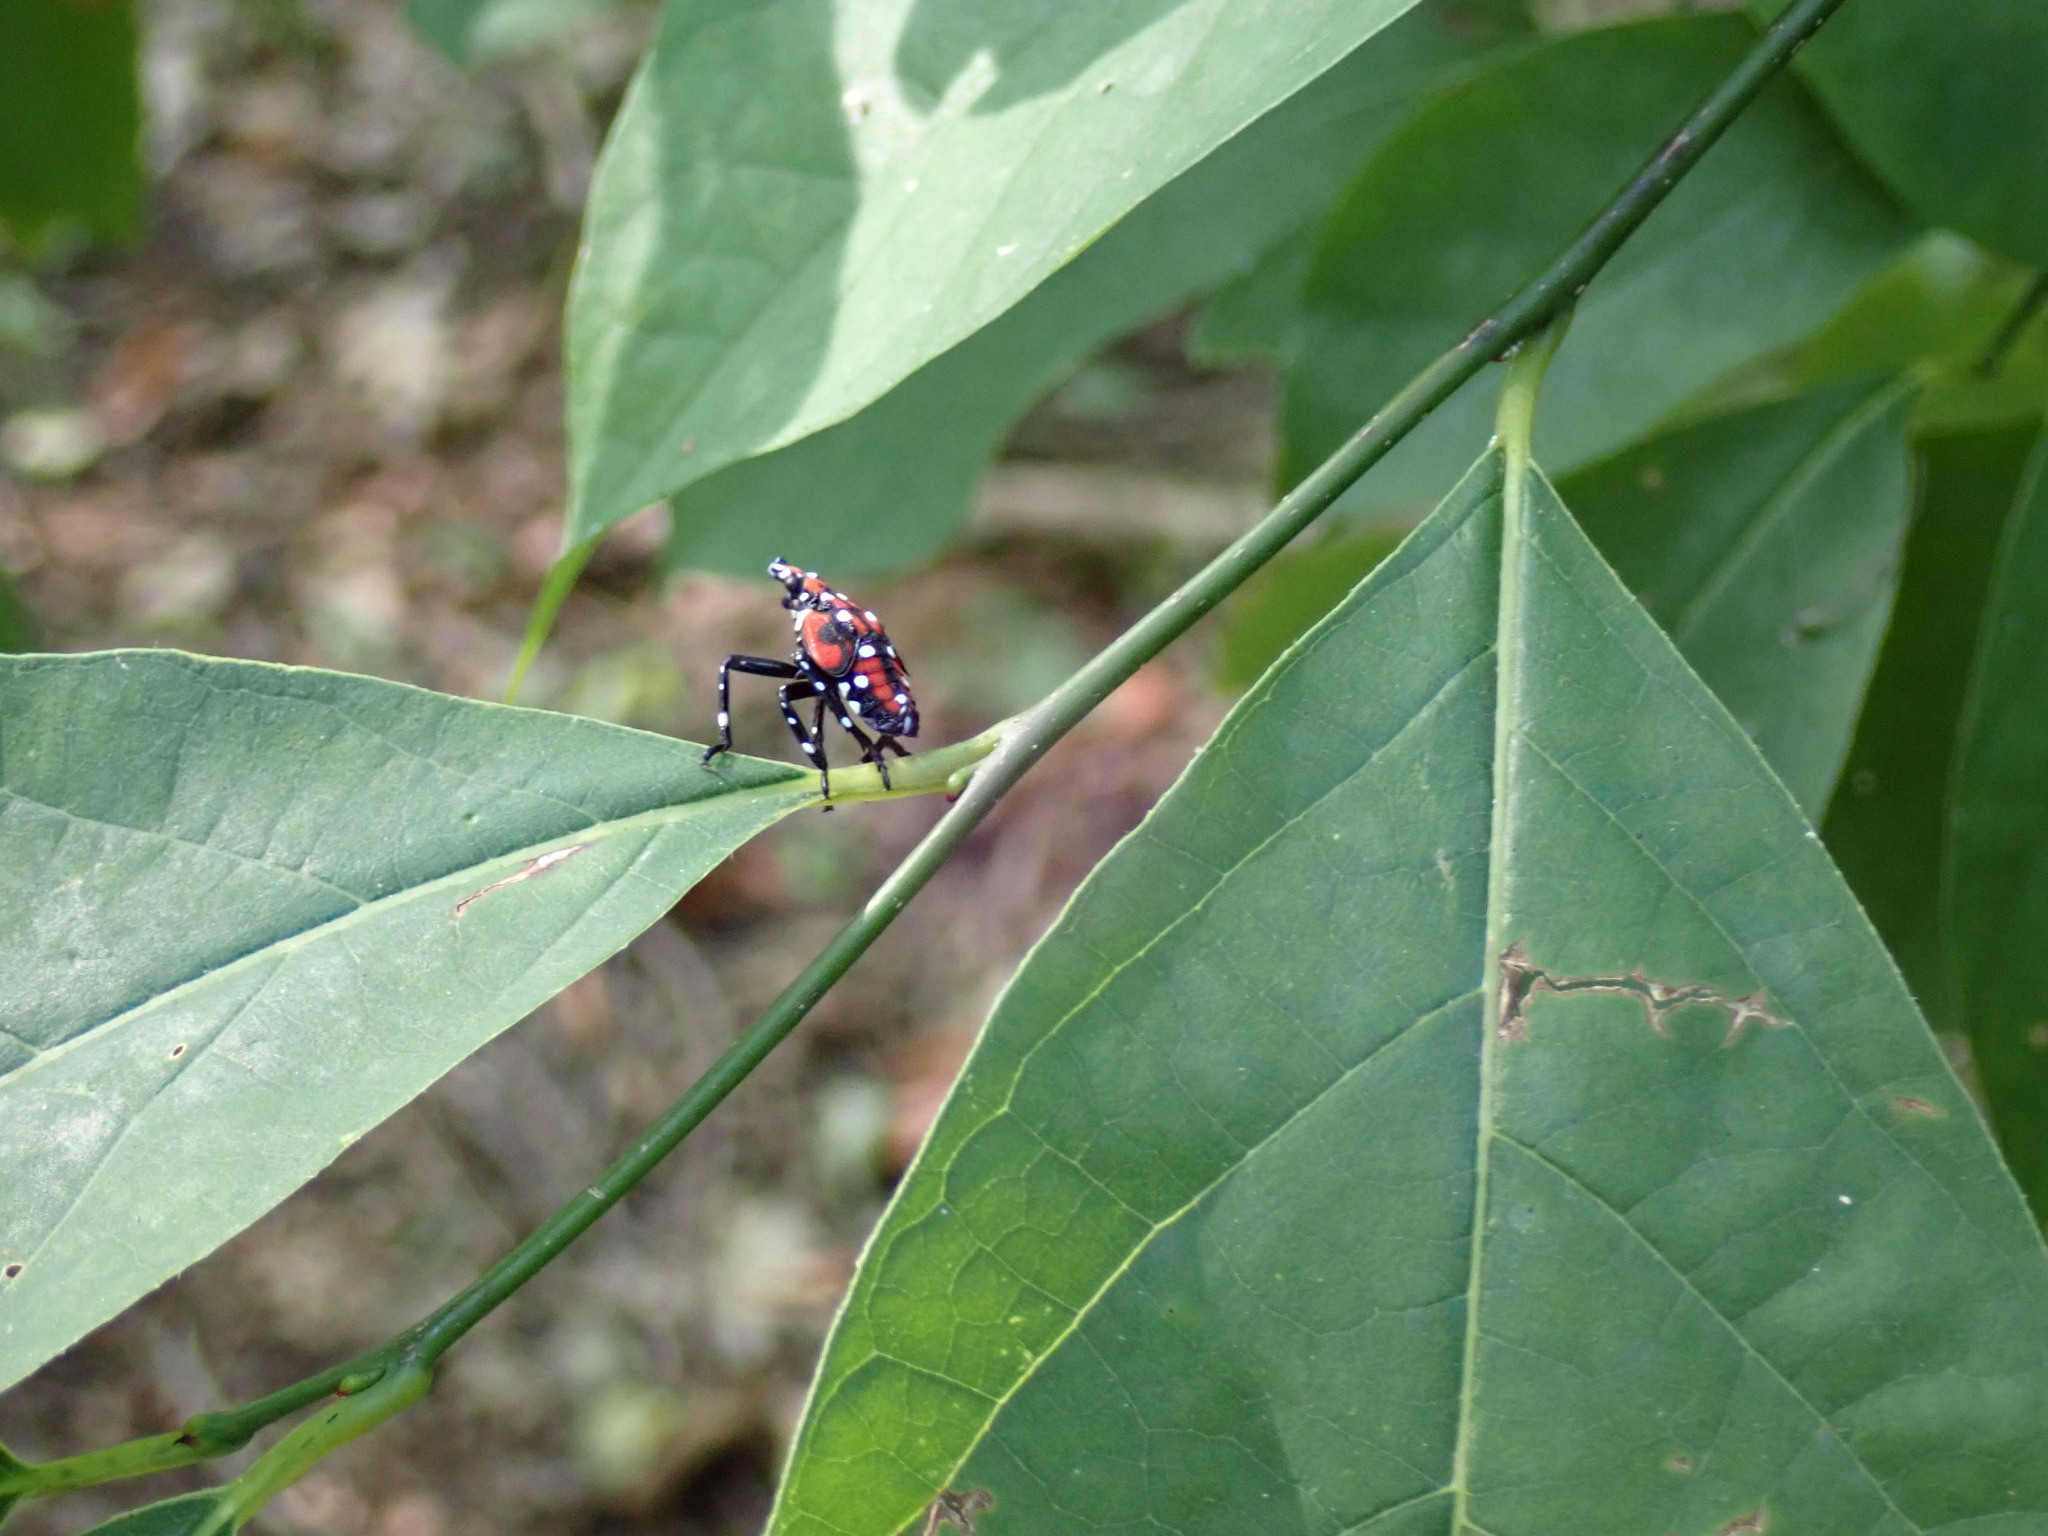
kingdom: Animalia
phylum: Arthropoda
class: Insecta
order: Hemiptera
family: Fulgoridae
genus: Lycorma
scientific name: Lycorma delicatula
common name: Spotted lanternfly
